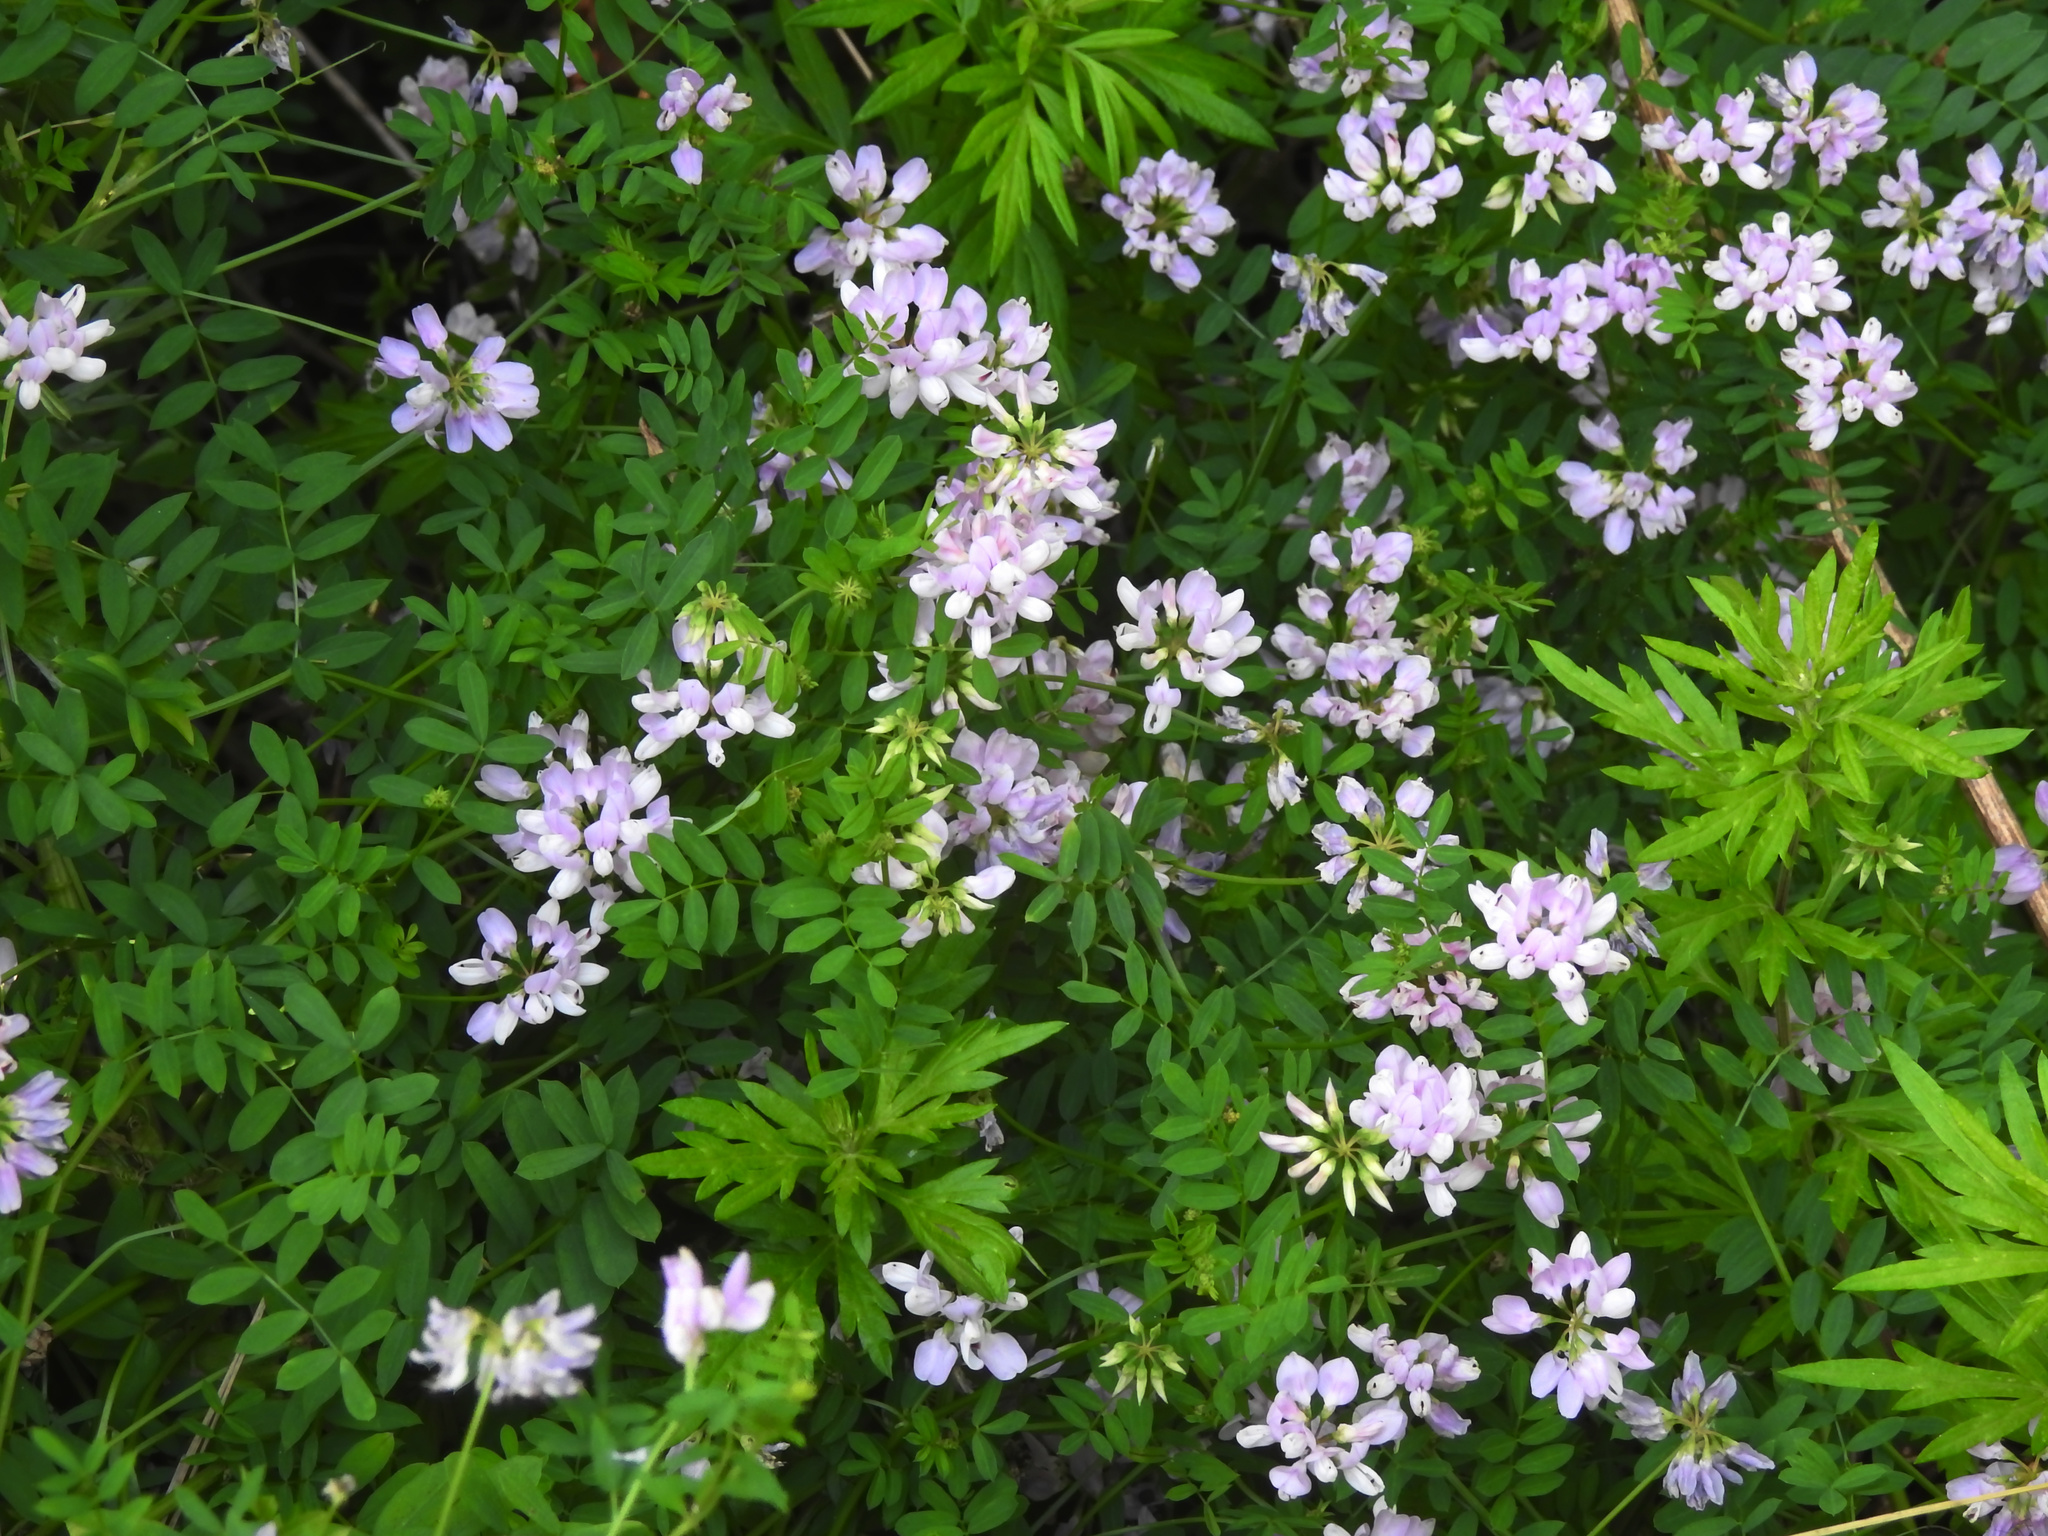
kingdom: Plantae
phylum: Tracheophyta
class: Magnoliopsida
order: Fabales
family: Fabaceae
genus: Coronilla
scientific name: Coronilla varia
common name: Crownvetch
